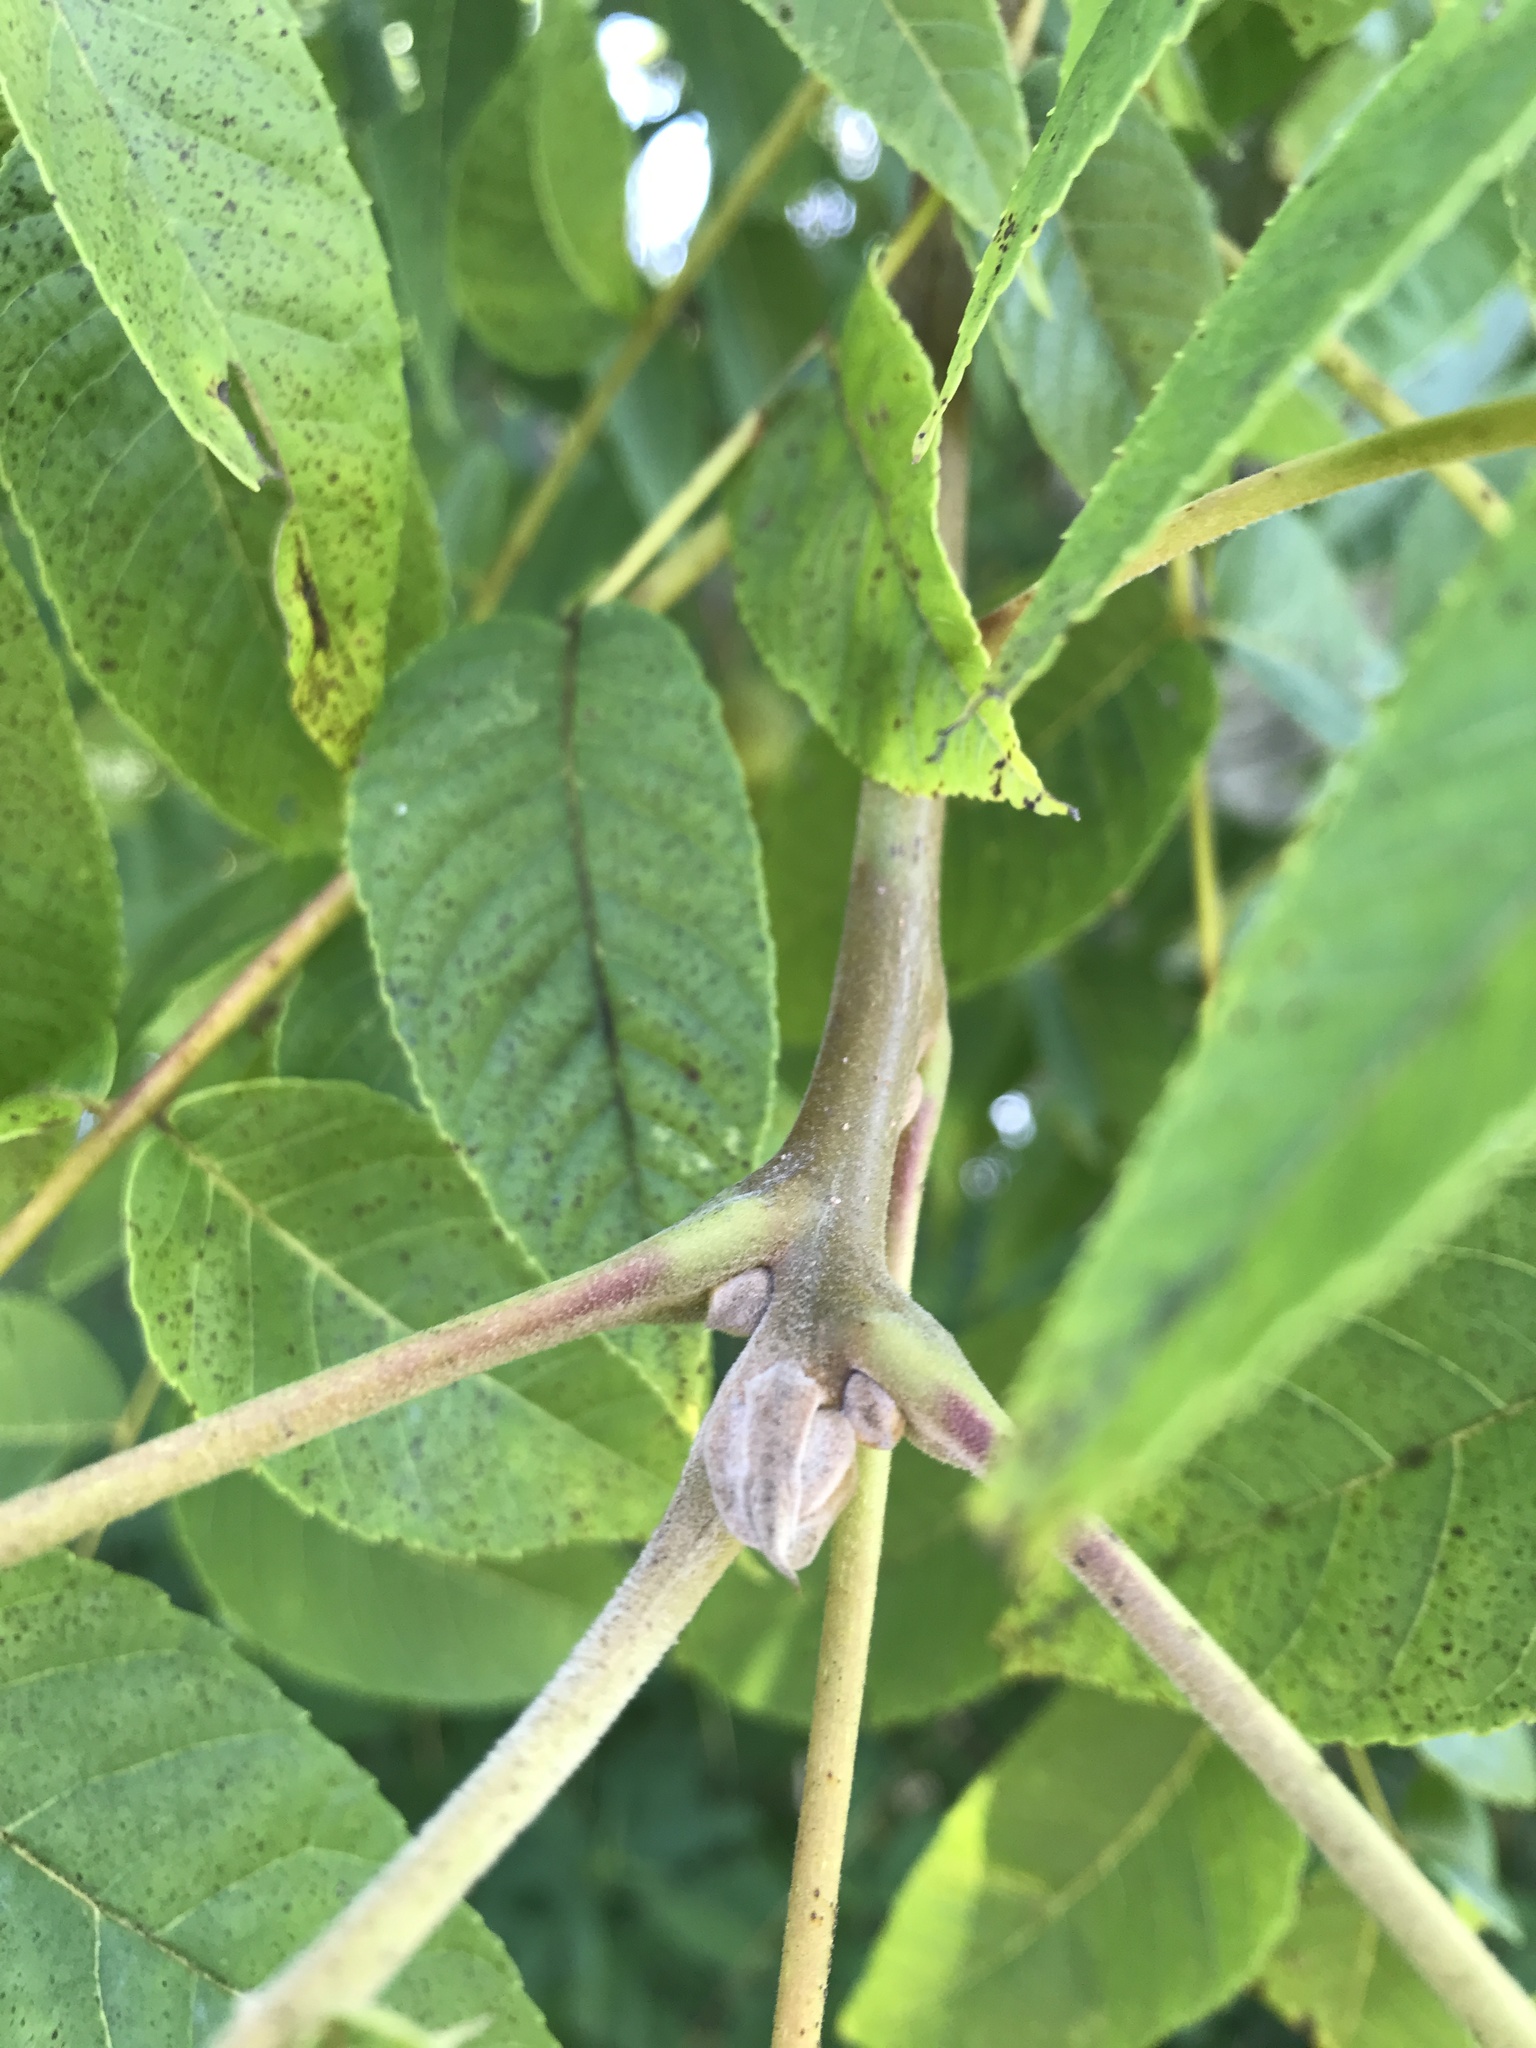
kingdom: Plantae
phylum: Tracheophyta
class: Magnoliopsida
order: Fagales
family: Juglandaceae
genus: Juglans
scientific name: Juglans nigra
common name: Black walnut
